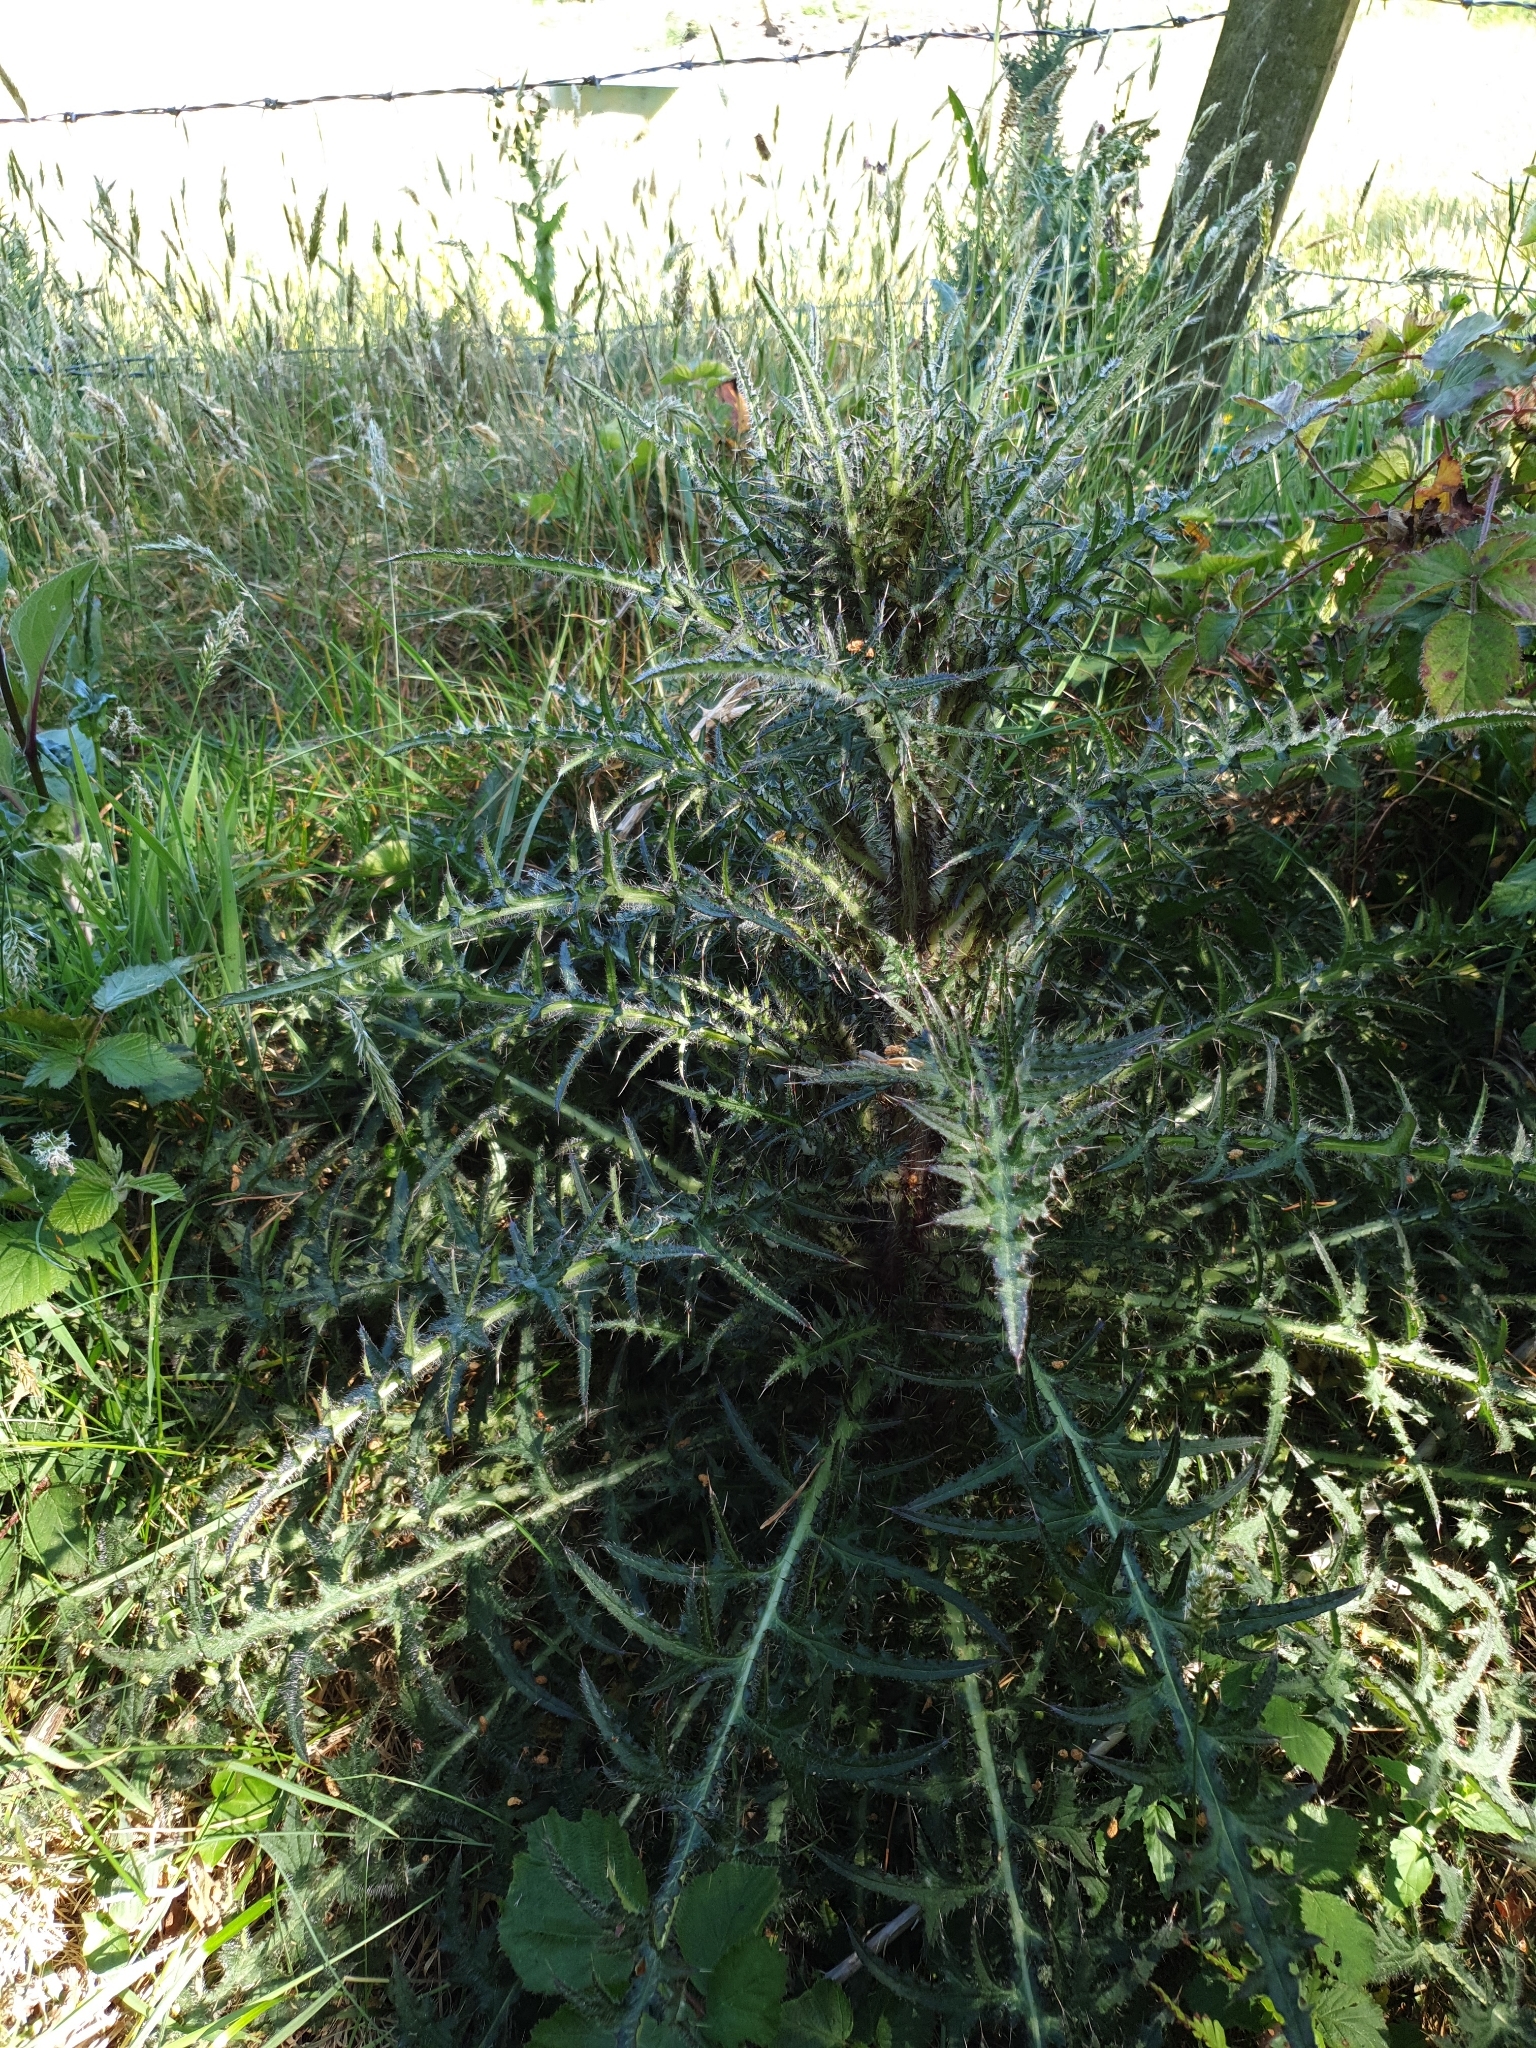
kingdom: Plantae
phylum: Tracheophyta
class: Magnoliopsida
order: Asterales
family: Asteraceae
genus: Cirsium
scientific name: Cirsium palustre
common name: Marsh thistle
